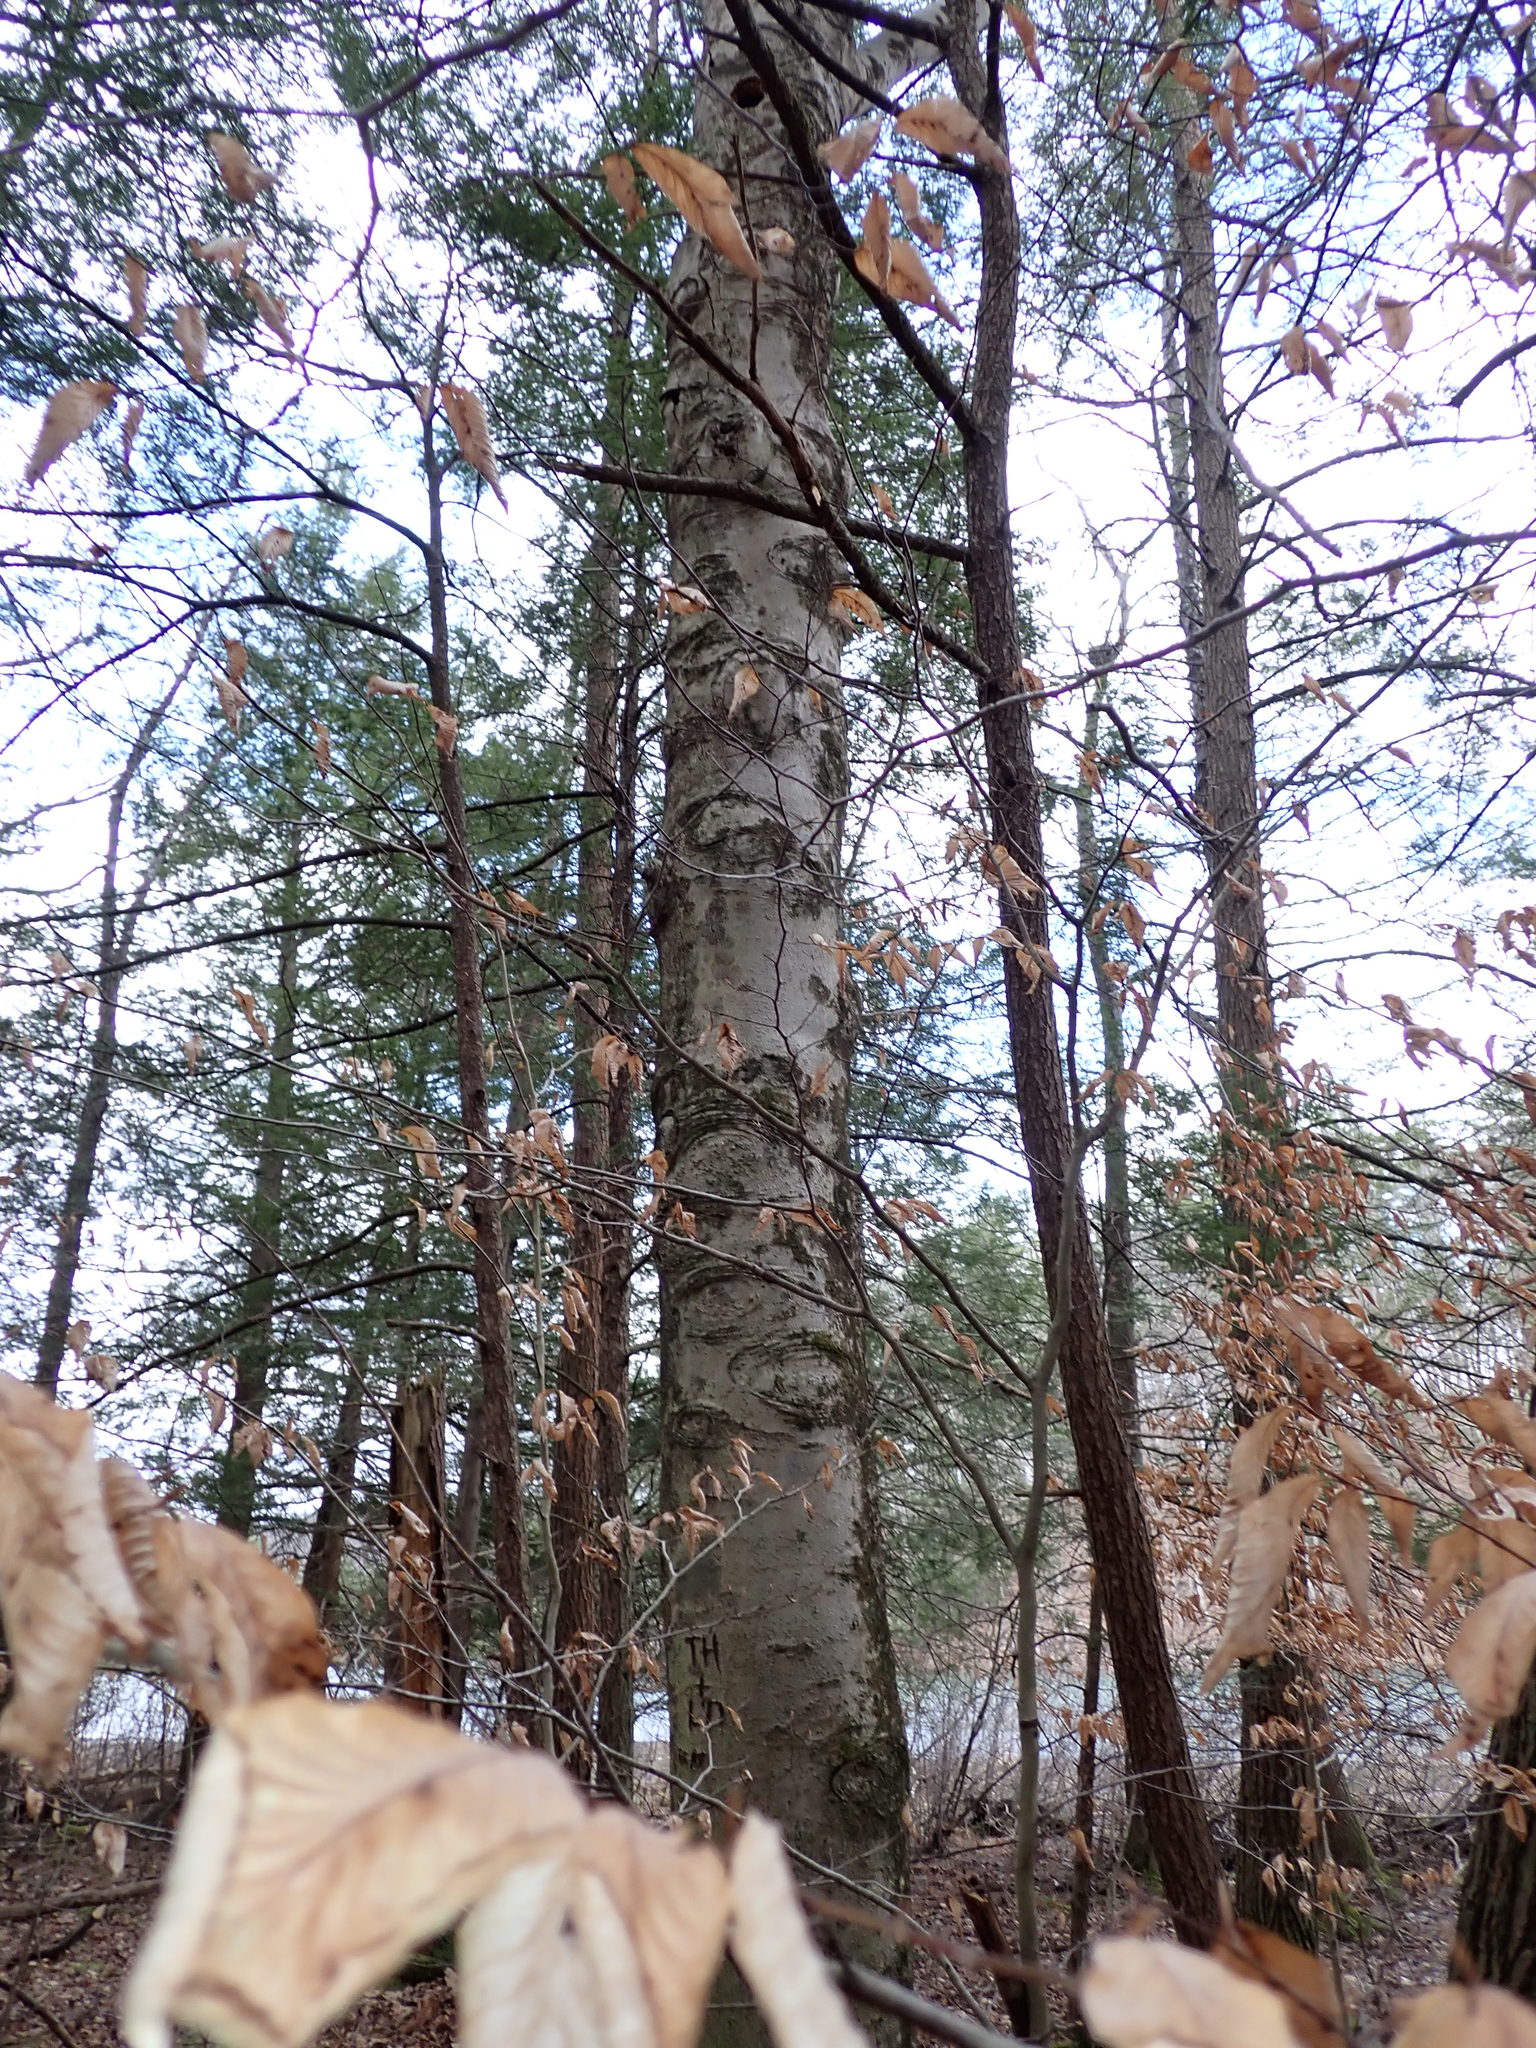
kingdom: Plantae
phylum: Tracheophyta
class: Magnoliopsida
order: Fagales
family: Fagaceae
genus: Fagus
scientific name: Fagus grandifolia
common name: American beech
